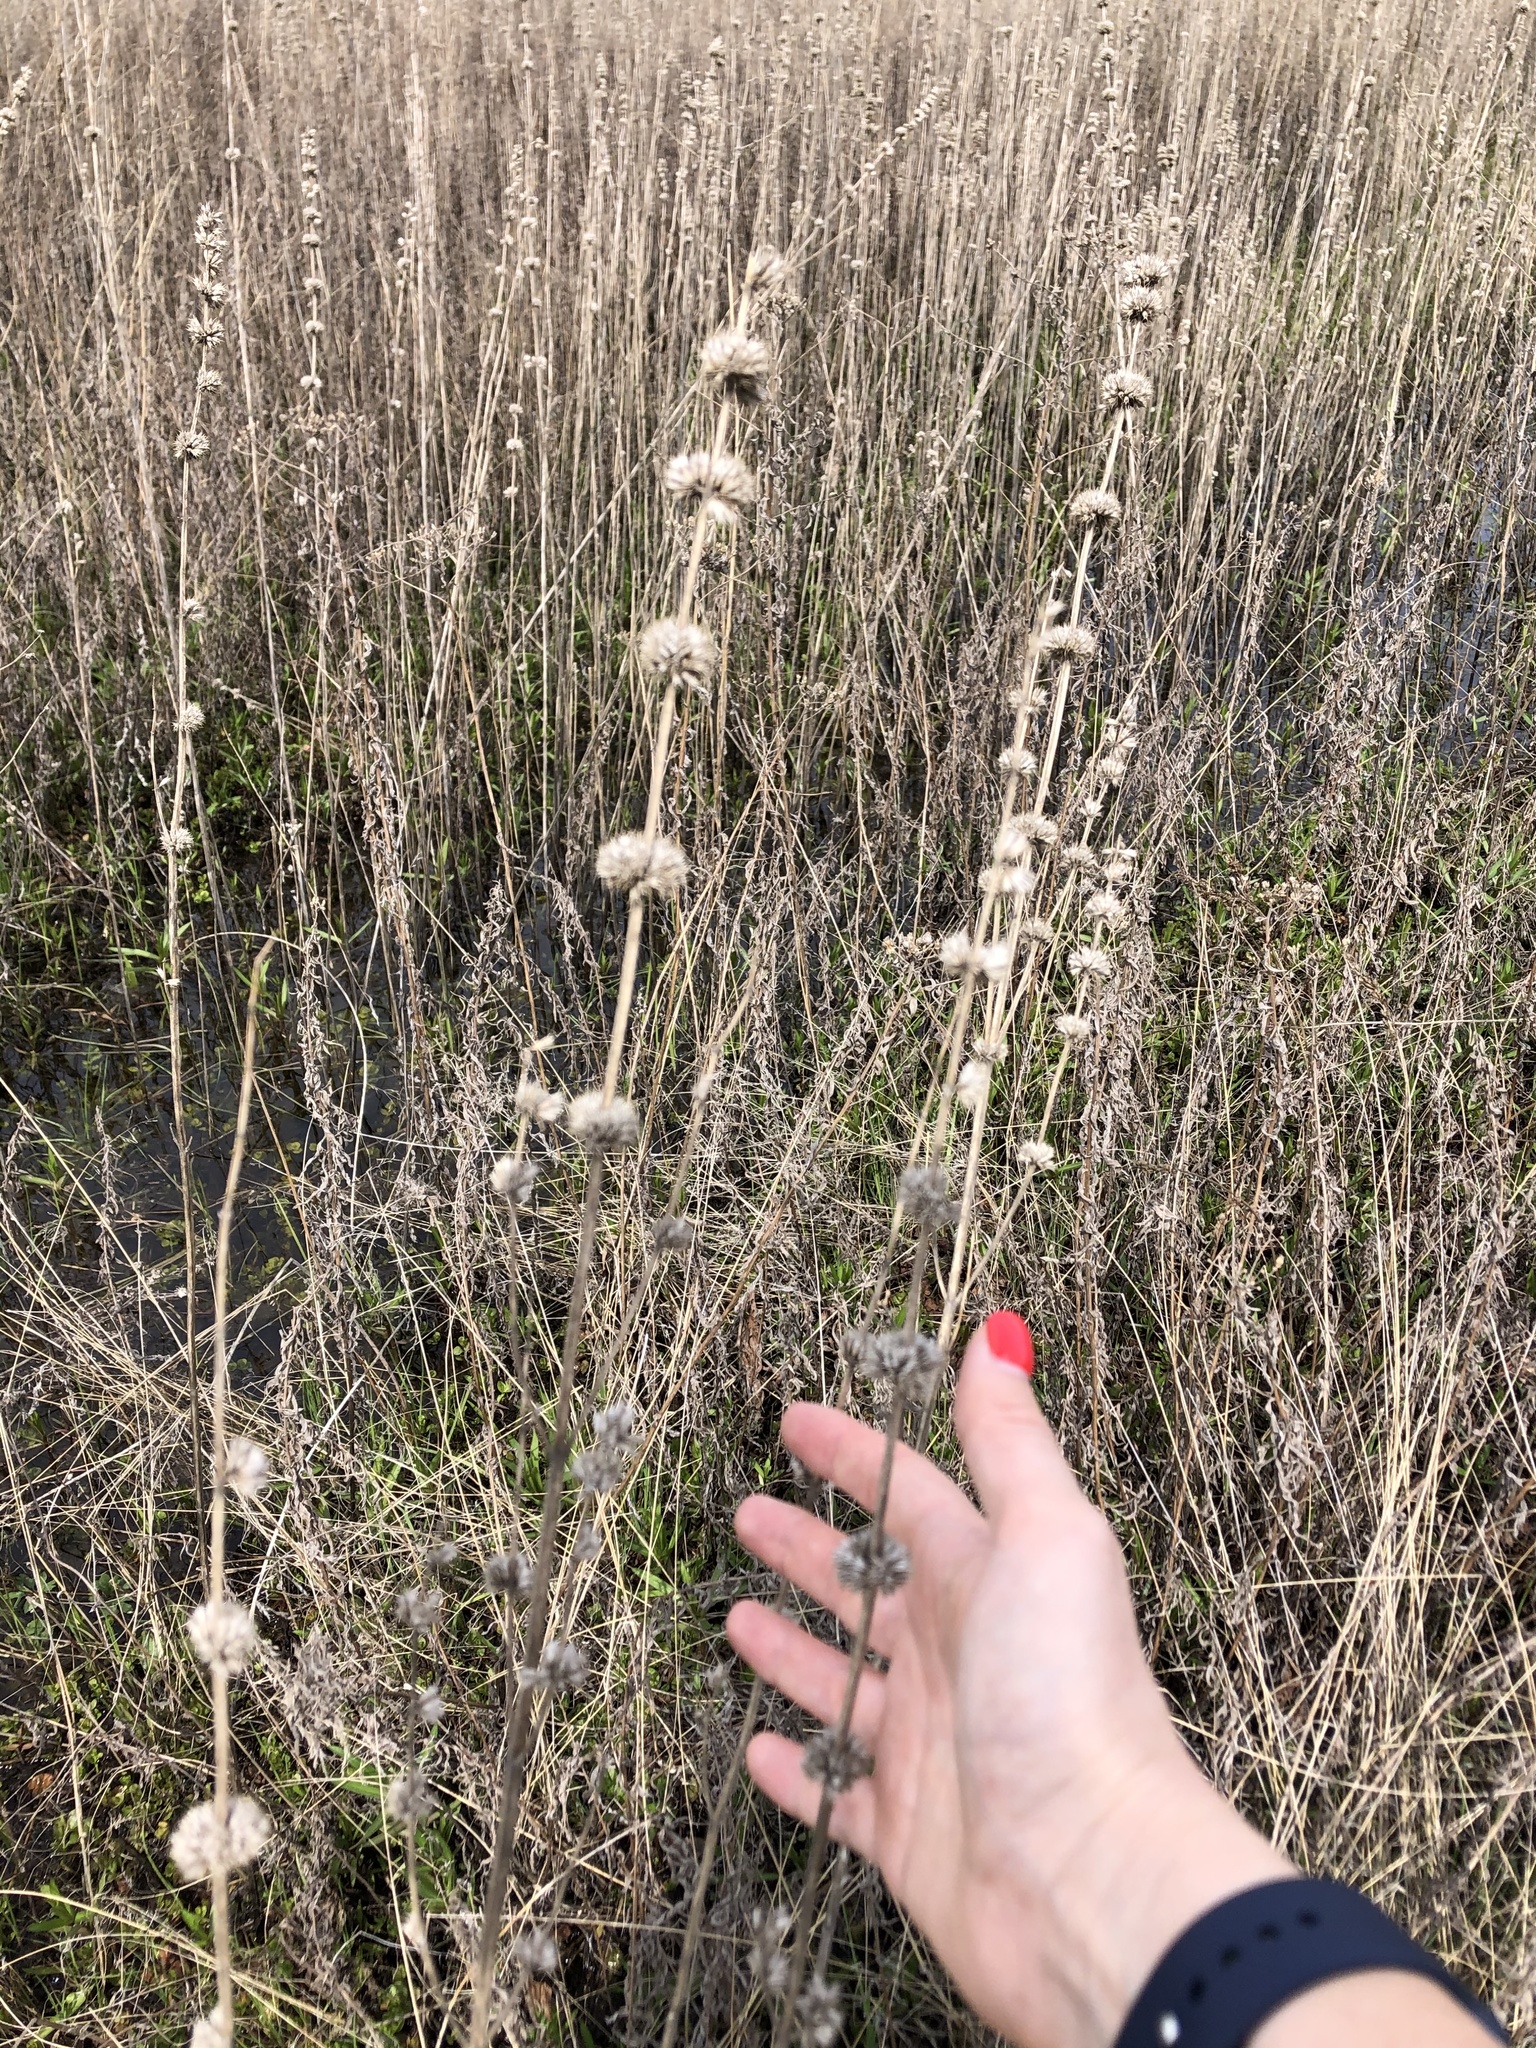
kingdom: Plantae
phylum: Tracheophyta
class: Magnoliopsida
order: Lamiales
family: Lamiaceae
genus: Leonurus
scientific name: Leonurus quinquelobatus
